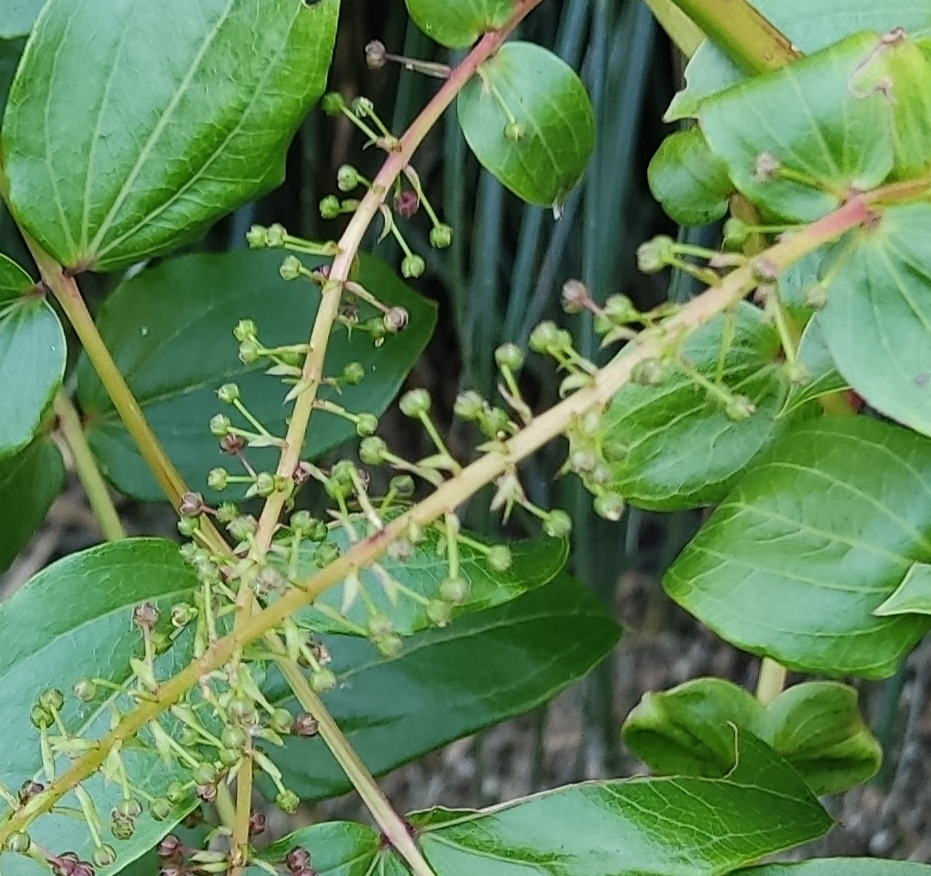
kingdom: Plantae
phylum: Tracheophyta
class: Magnoliopsida
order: Cucurbitales
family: Coriariaceae
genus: Coriaria
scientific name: Coriaria myrtifolia
